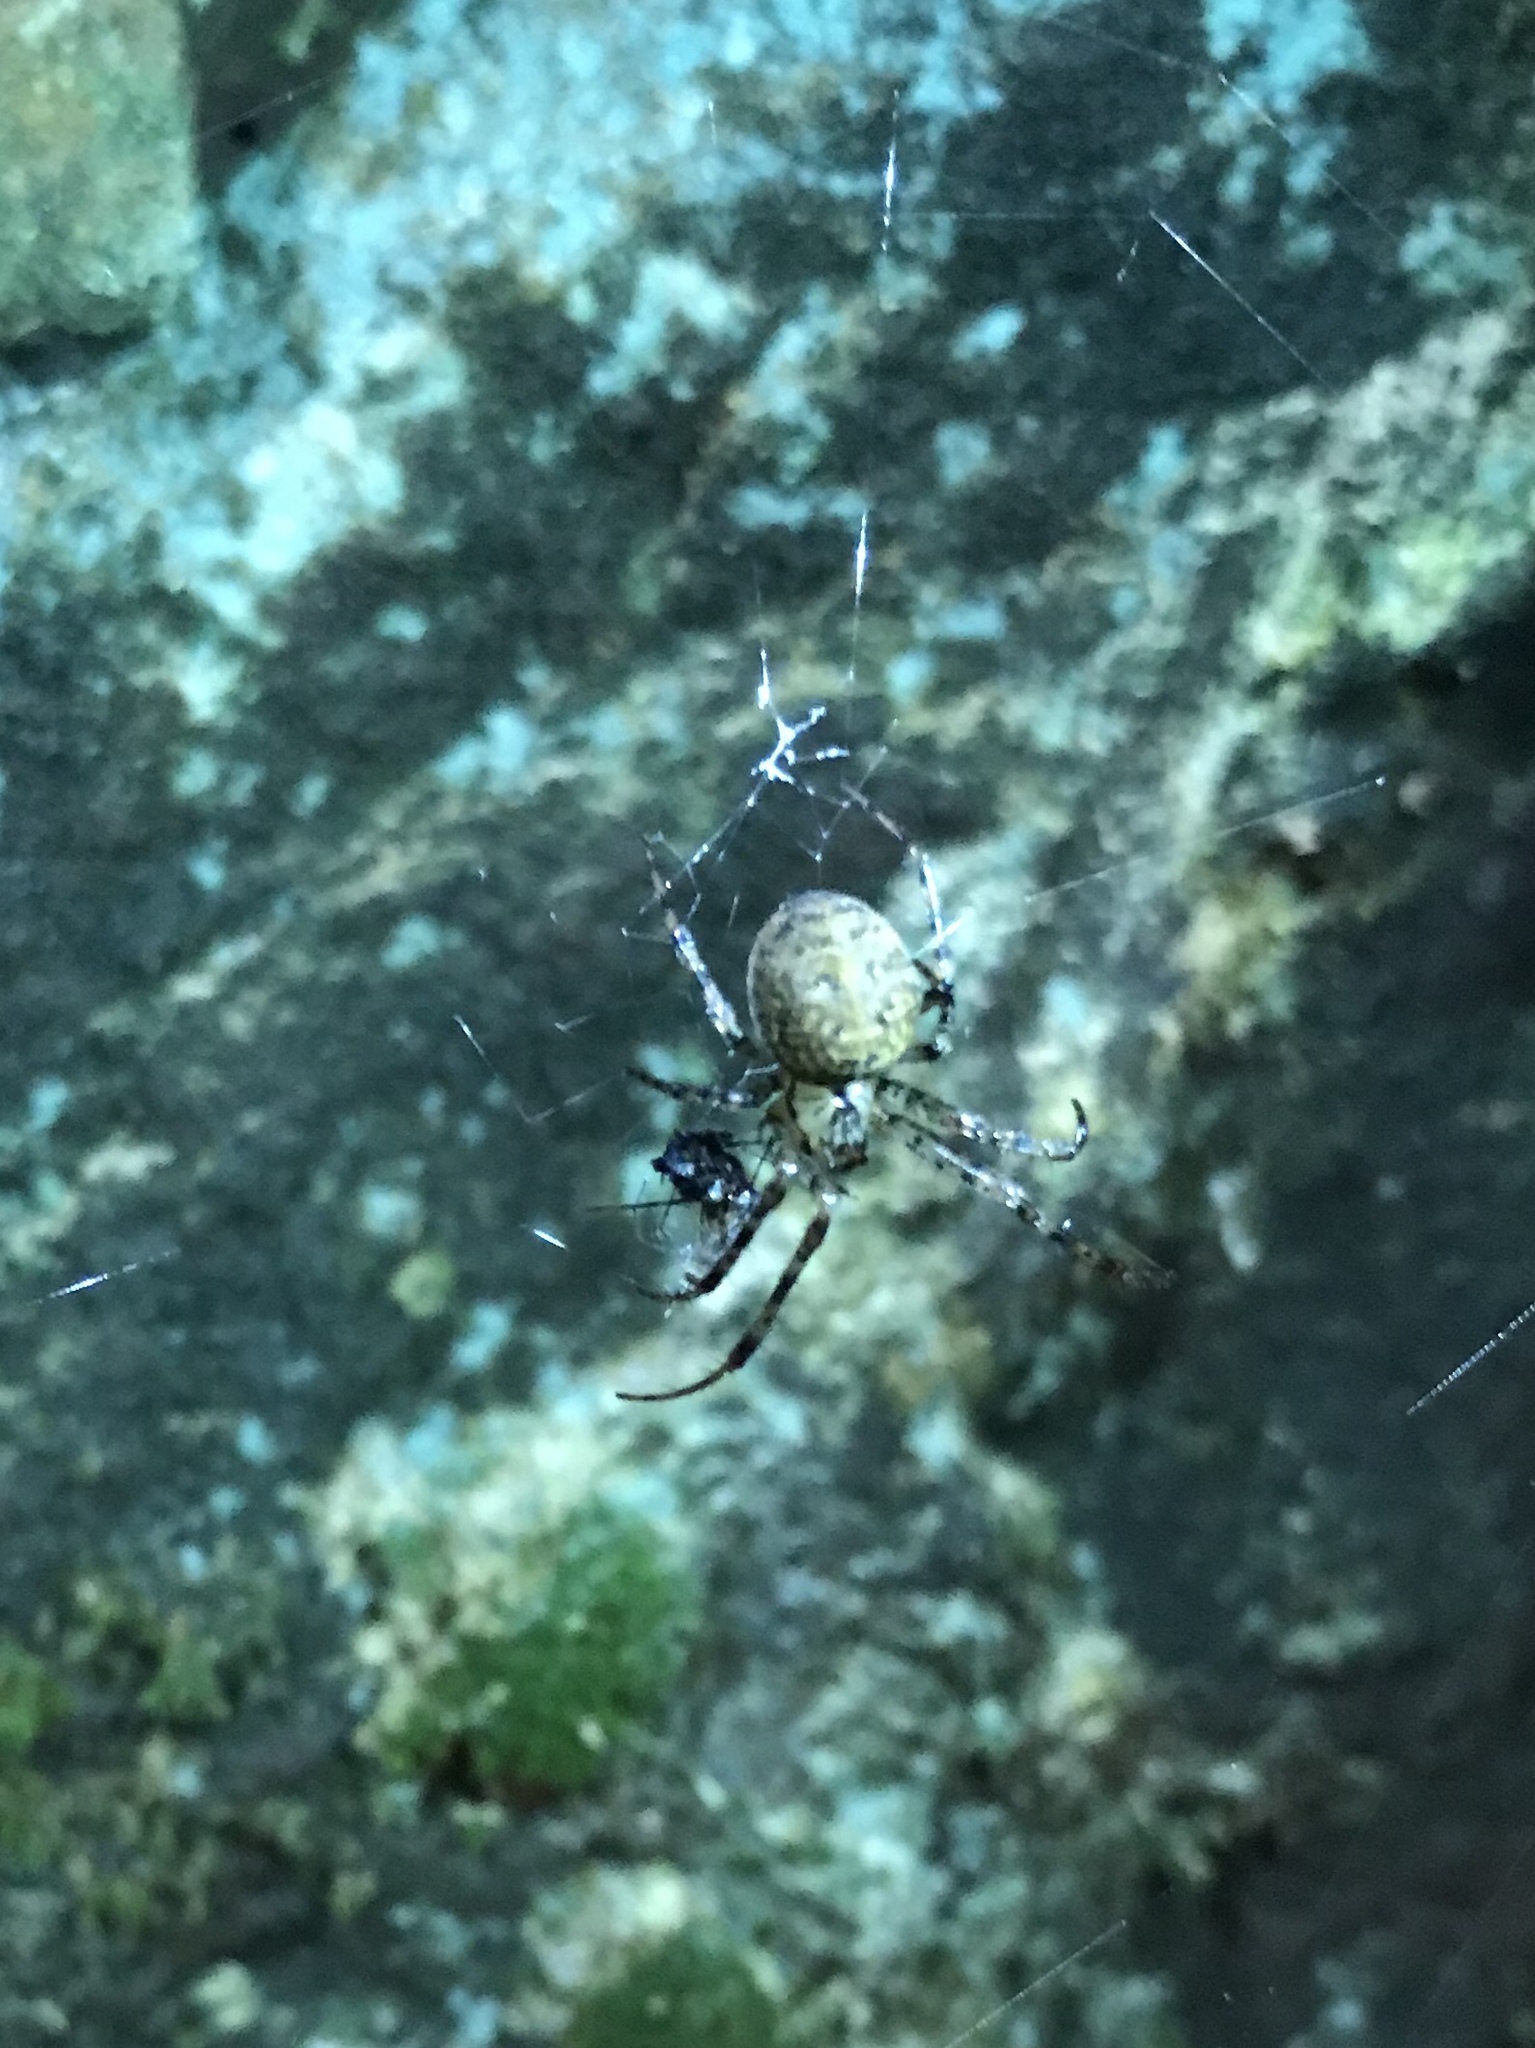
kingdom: Animalia
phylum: Arthropoda
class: Arachnida
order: Araneae
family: Tetragnathidae
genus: Metellina
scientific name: Metellina merianae
